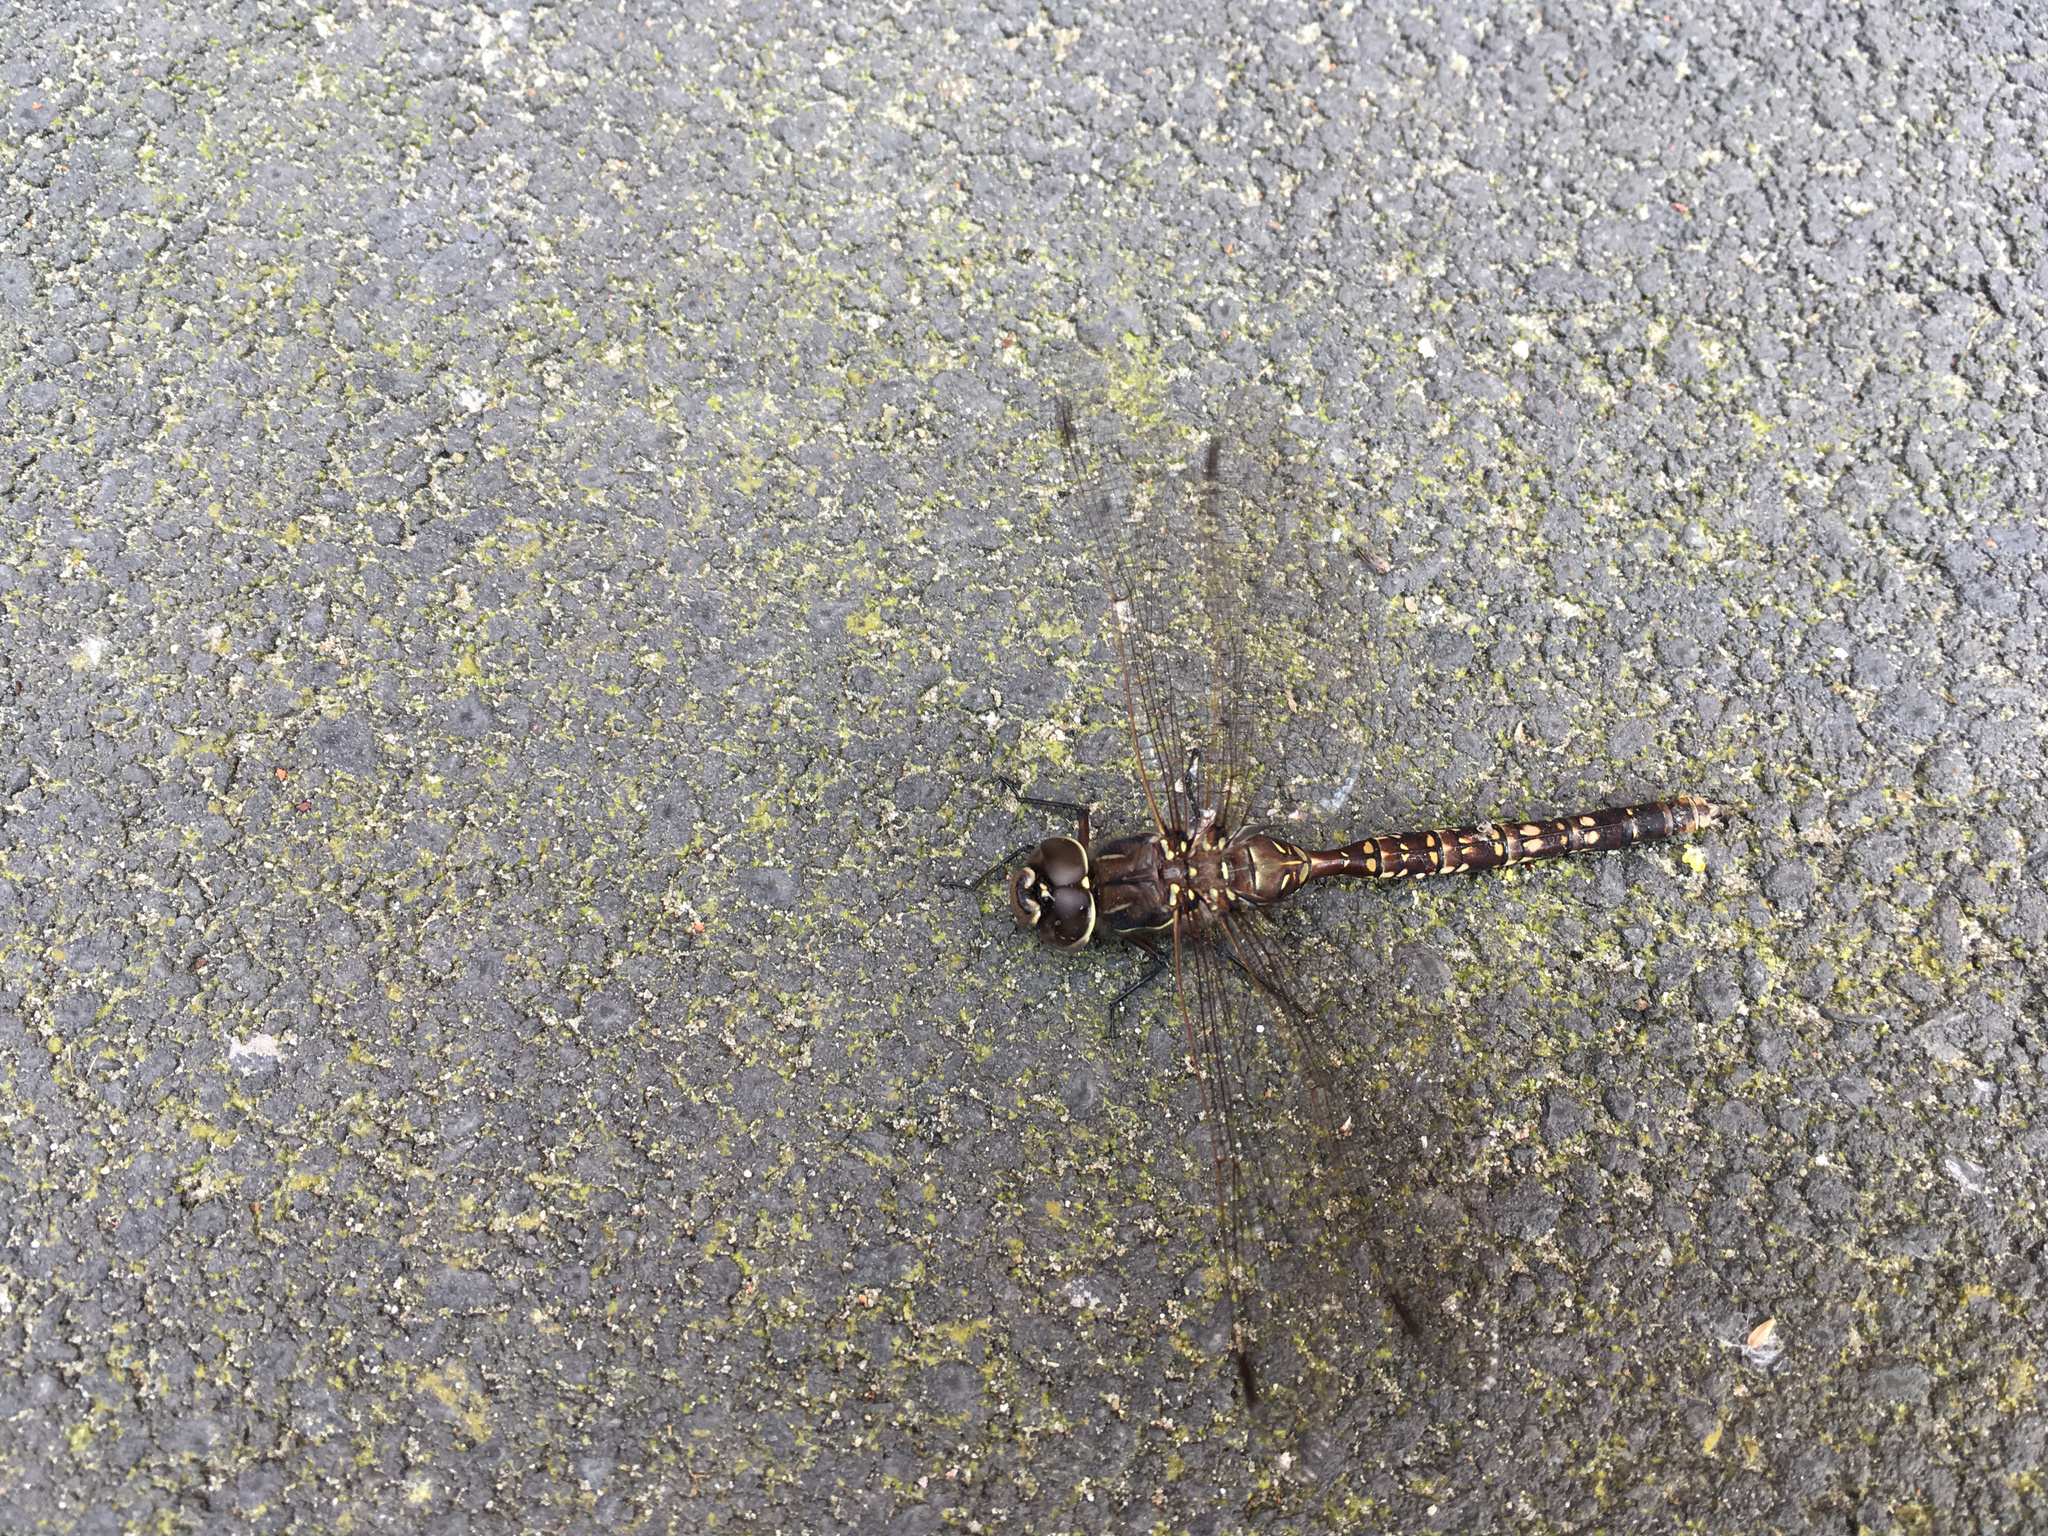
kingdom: Animalia
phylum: Arthropoda
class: Insecta
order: Odonata
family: Aeshnidae
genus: Aeshna
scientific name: Aeshna brevistyla
